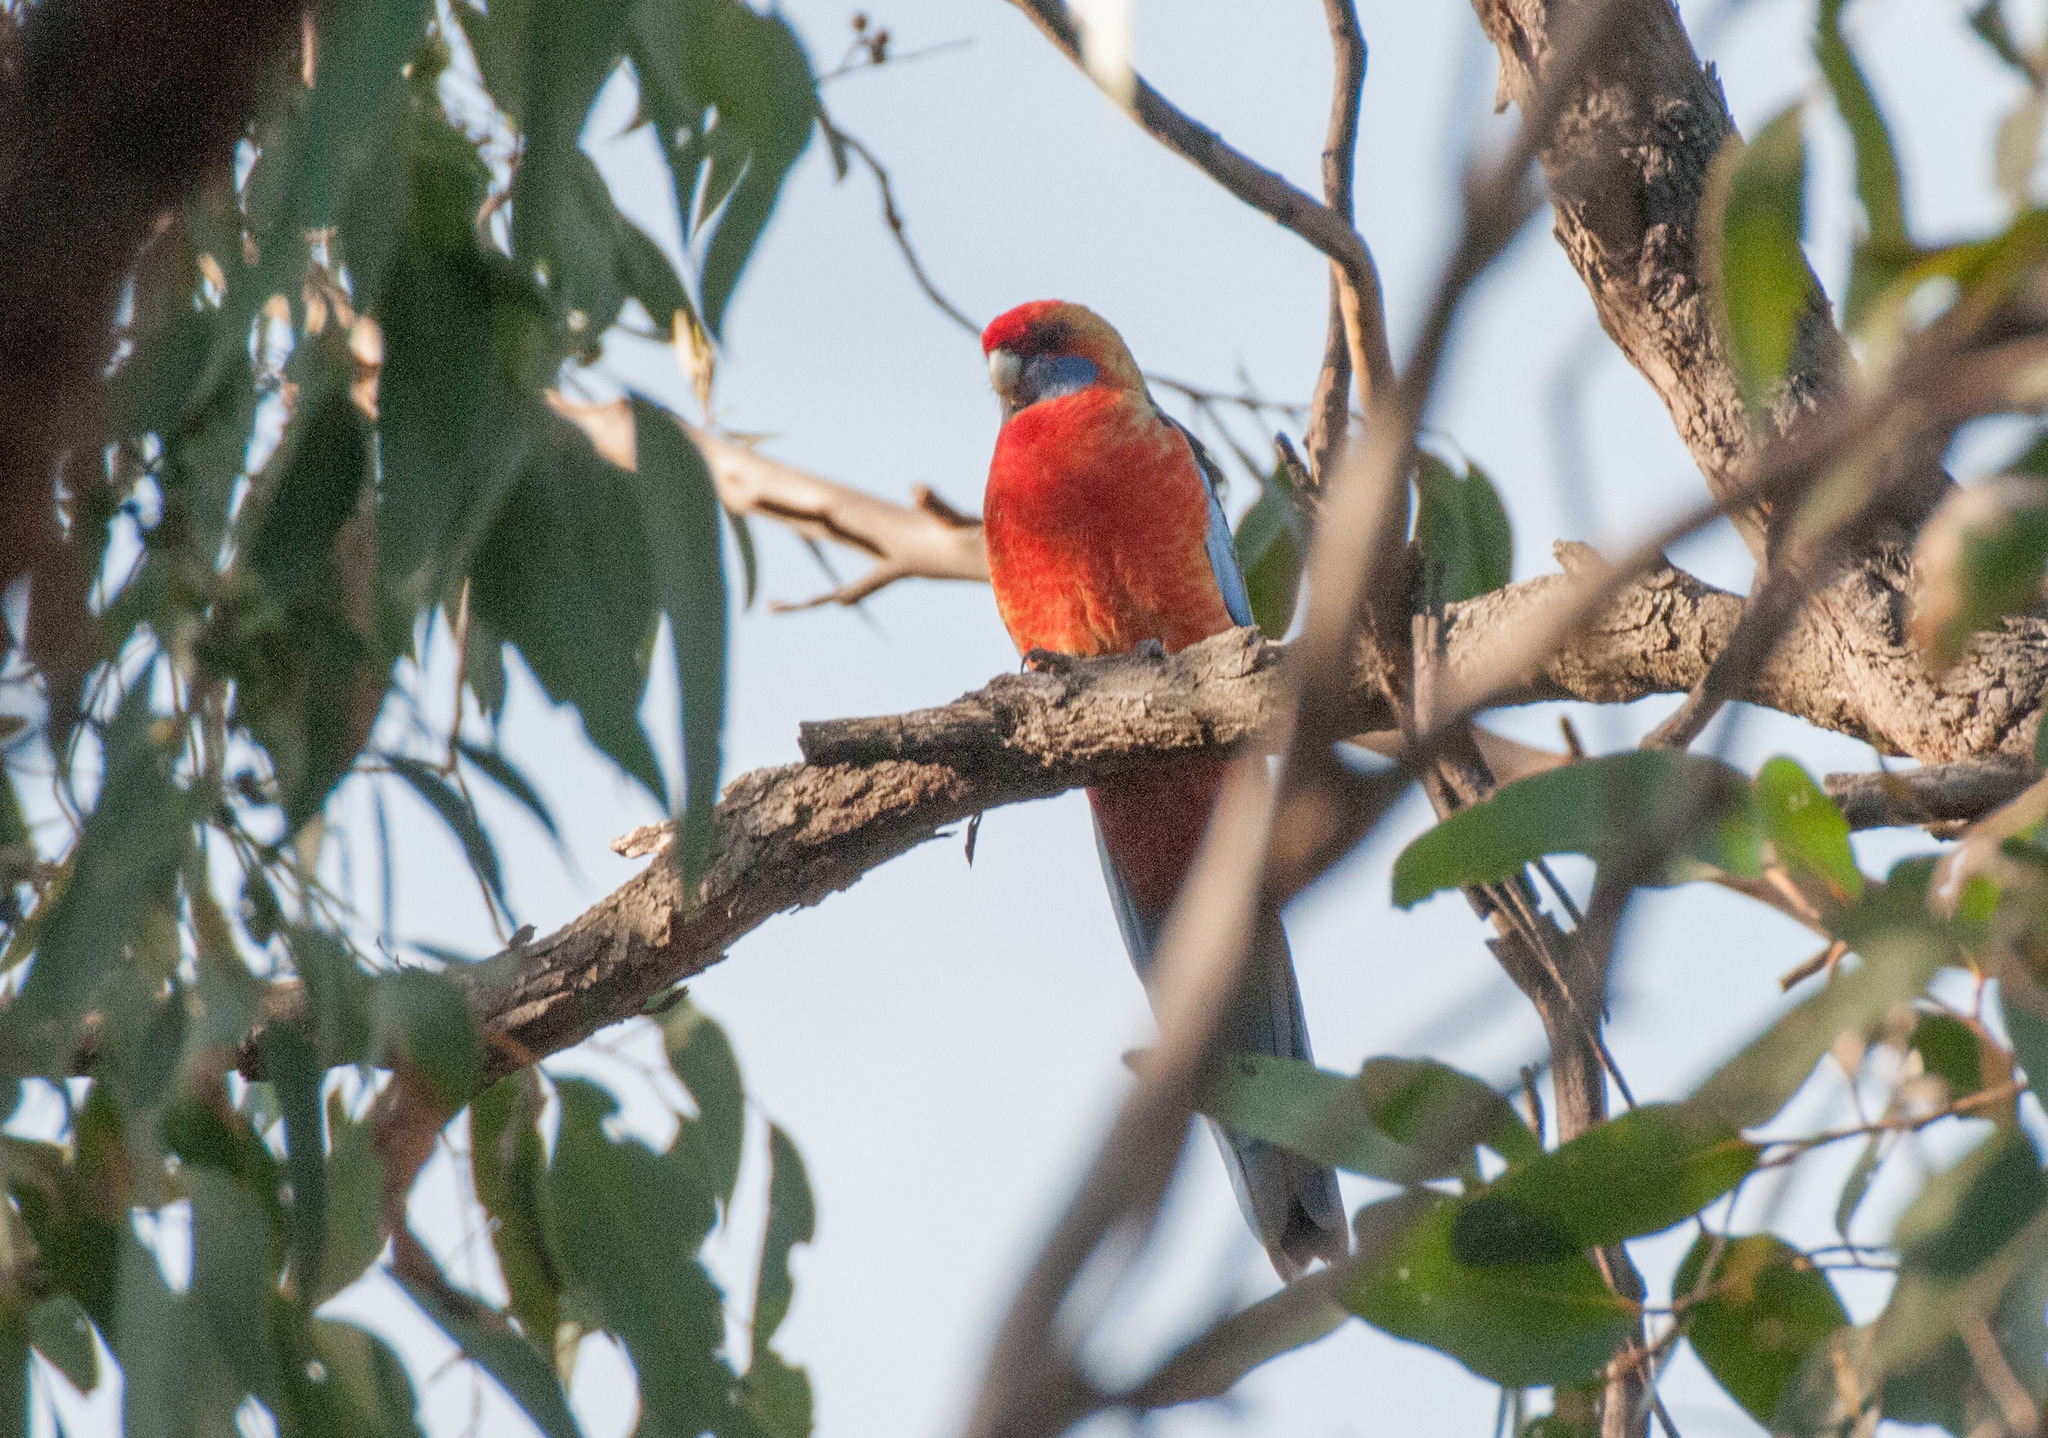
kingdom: Animalia
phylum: Chordata
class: Aves
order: Psittaciformes
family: Psittacidae
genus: Platycercus
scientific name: Platycercus elegans
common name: Crimson rosella
